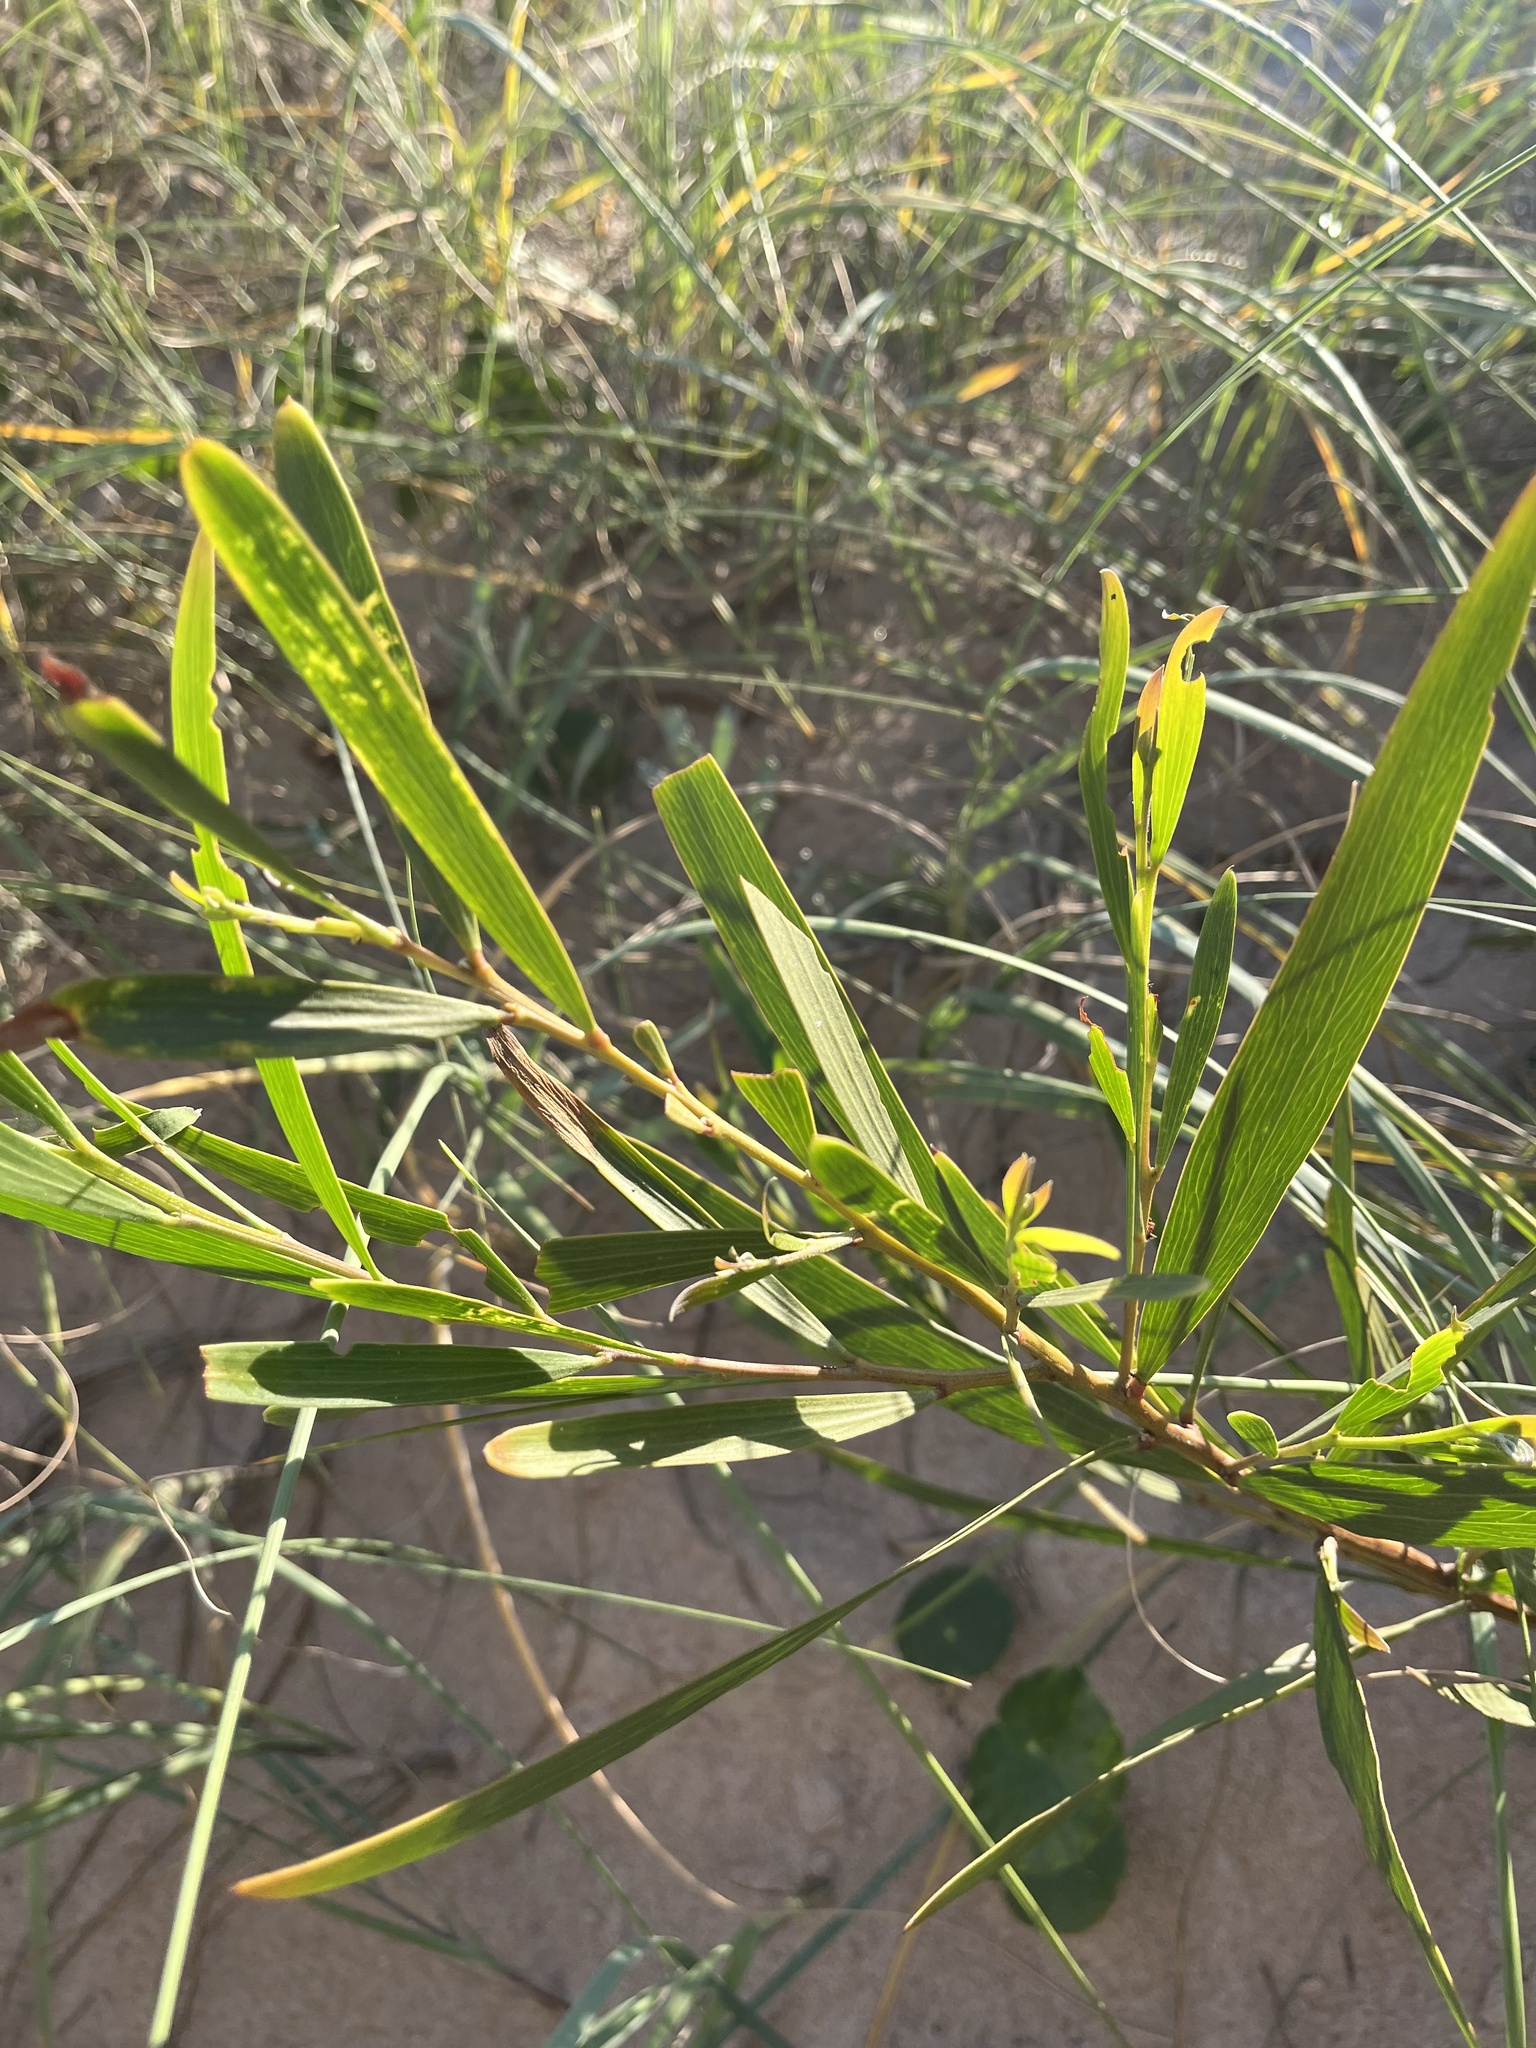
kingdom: Plantae
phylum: Tracheophyta
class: Magnoliopsida
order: Fabales
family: Fabaceae
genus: Acacia
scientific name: Acacia longifolia
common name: Sydney golden wattle
